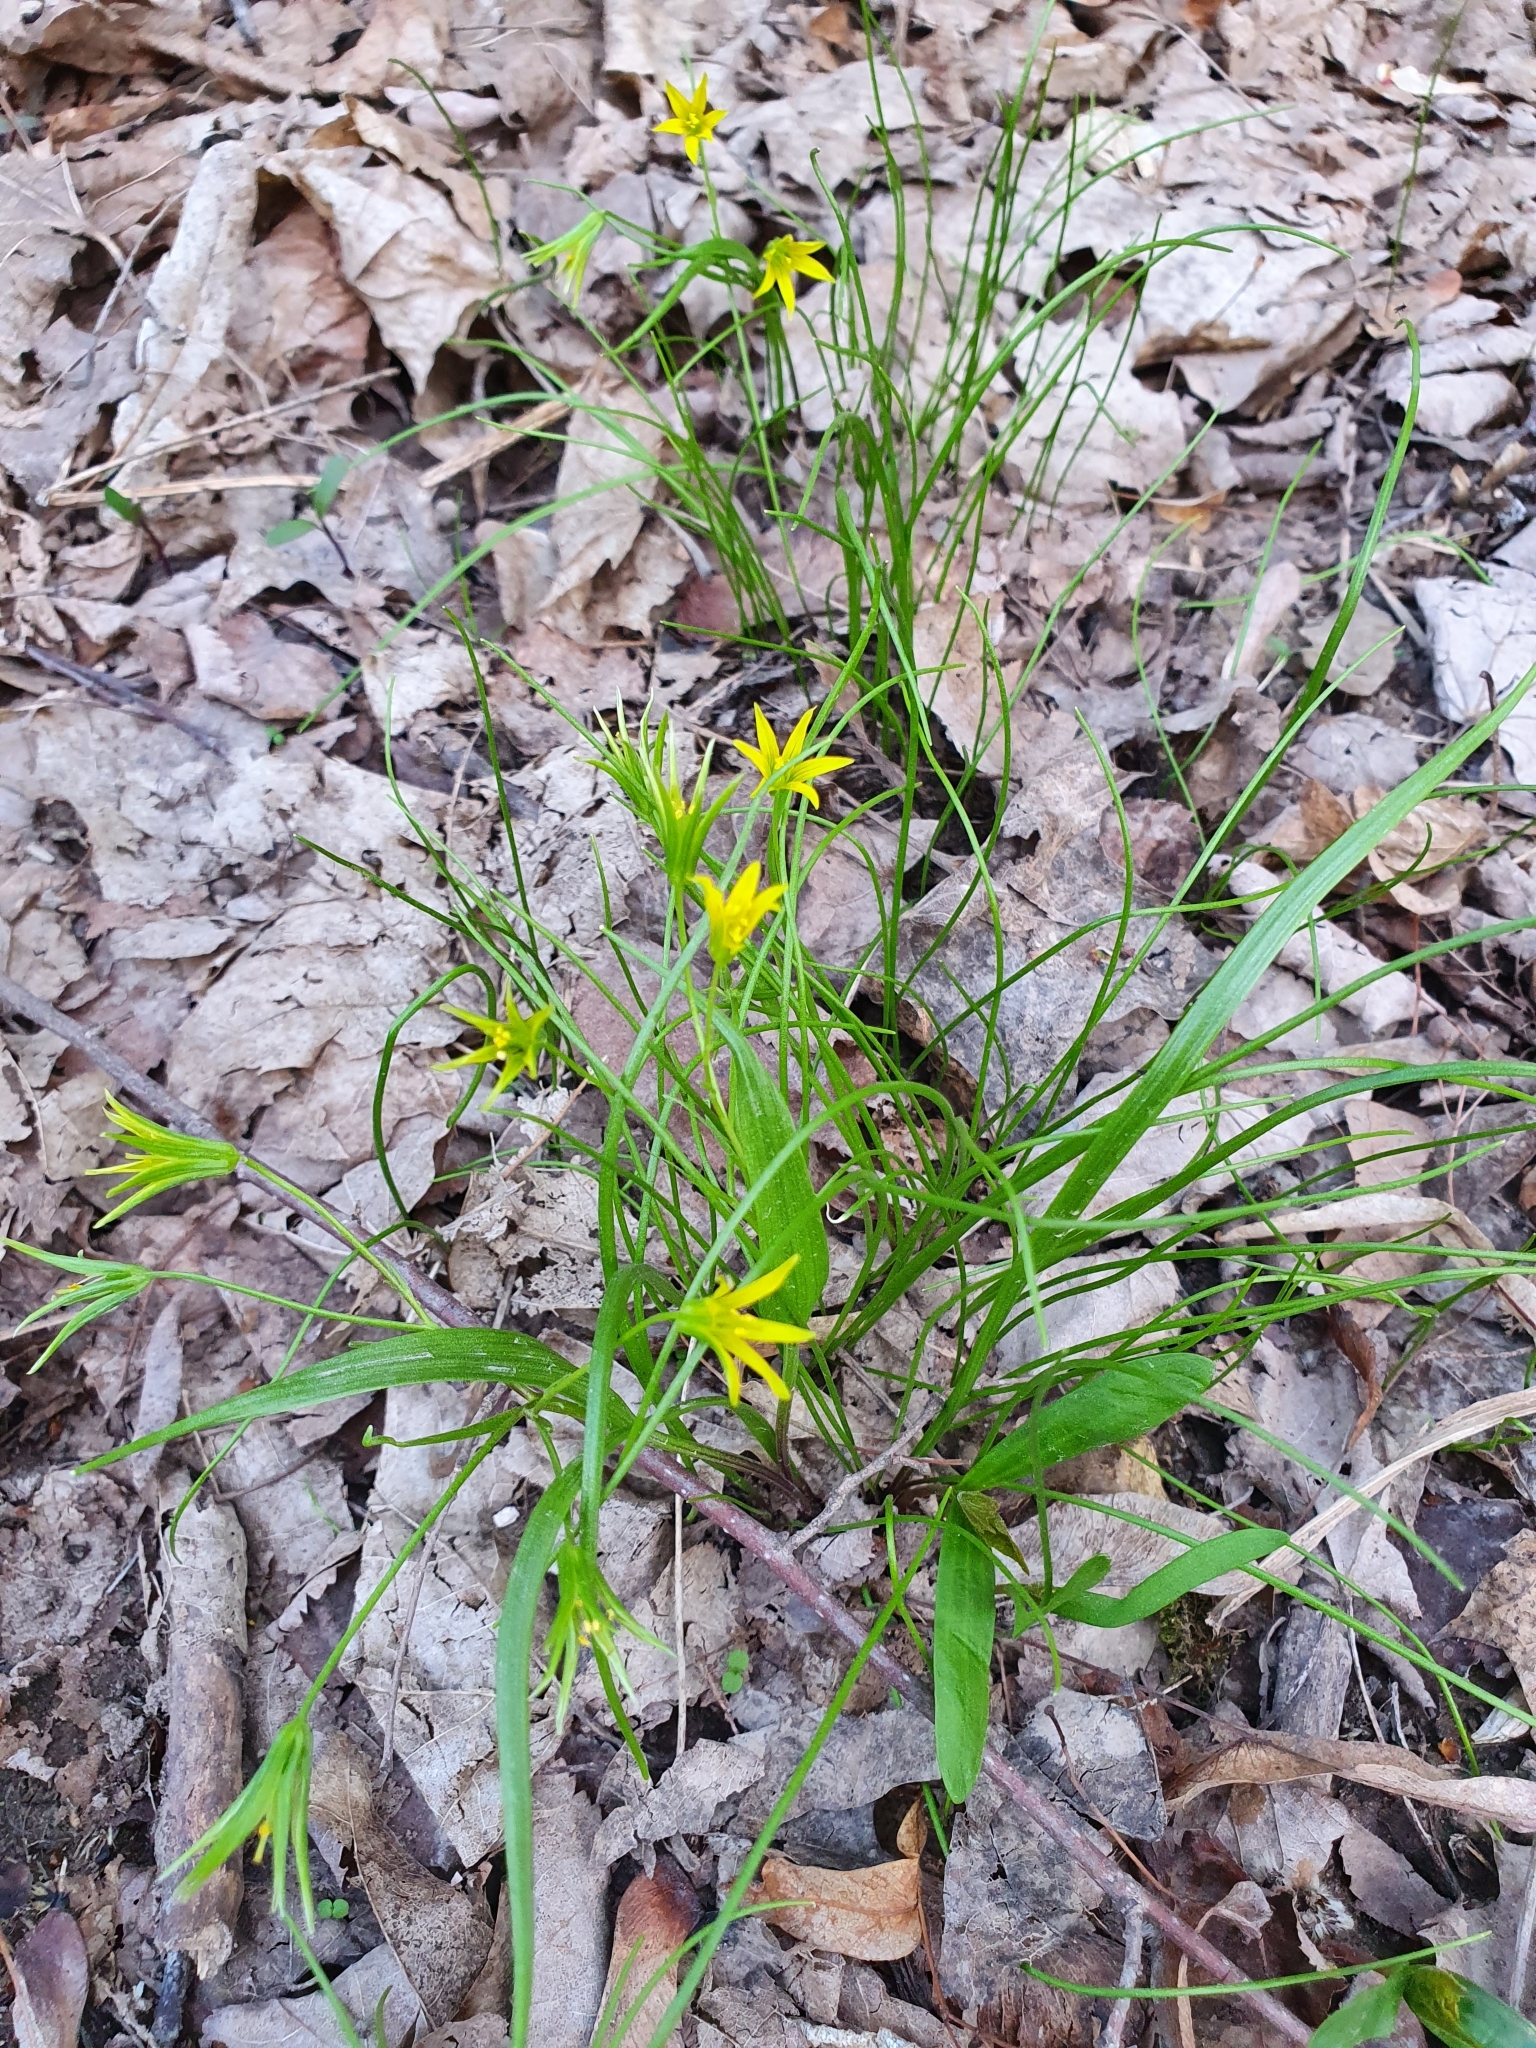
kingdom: Plantae
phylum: Tracheophyta
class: Liliopsida
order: Liliales
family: Liliaceae
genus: Gagea
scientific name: Gagea minima
